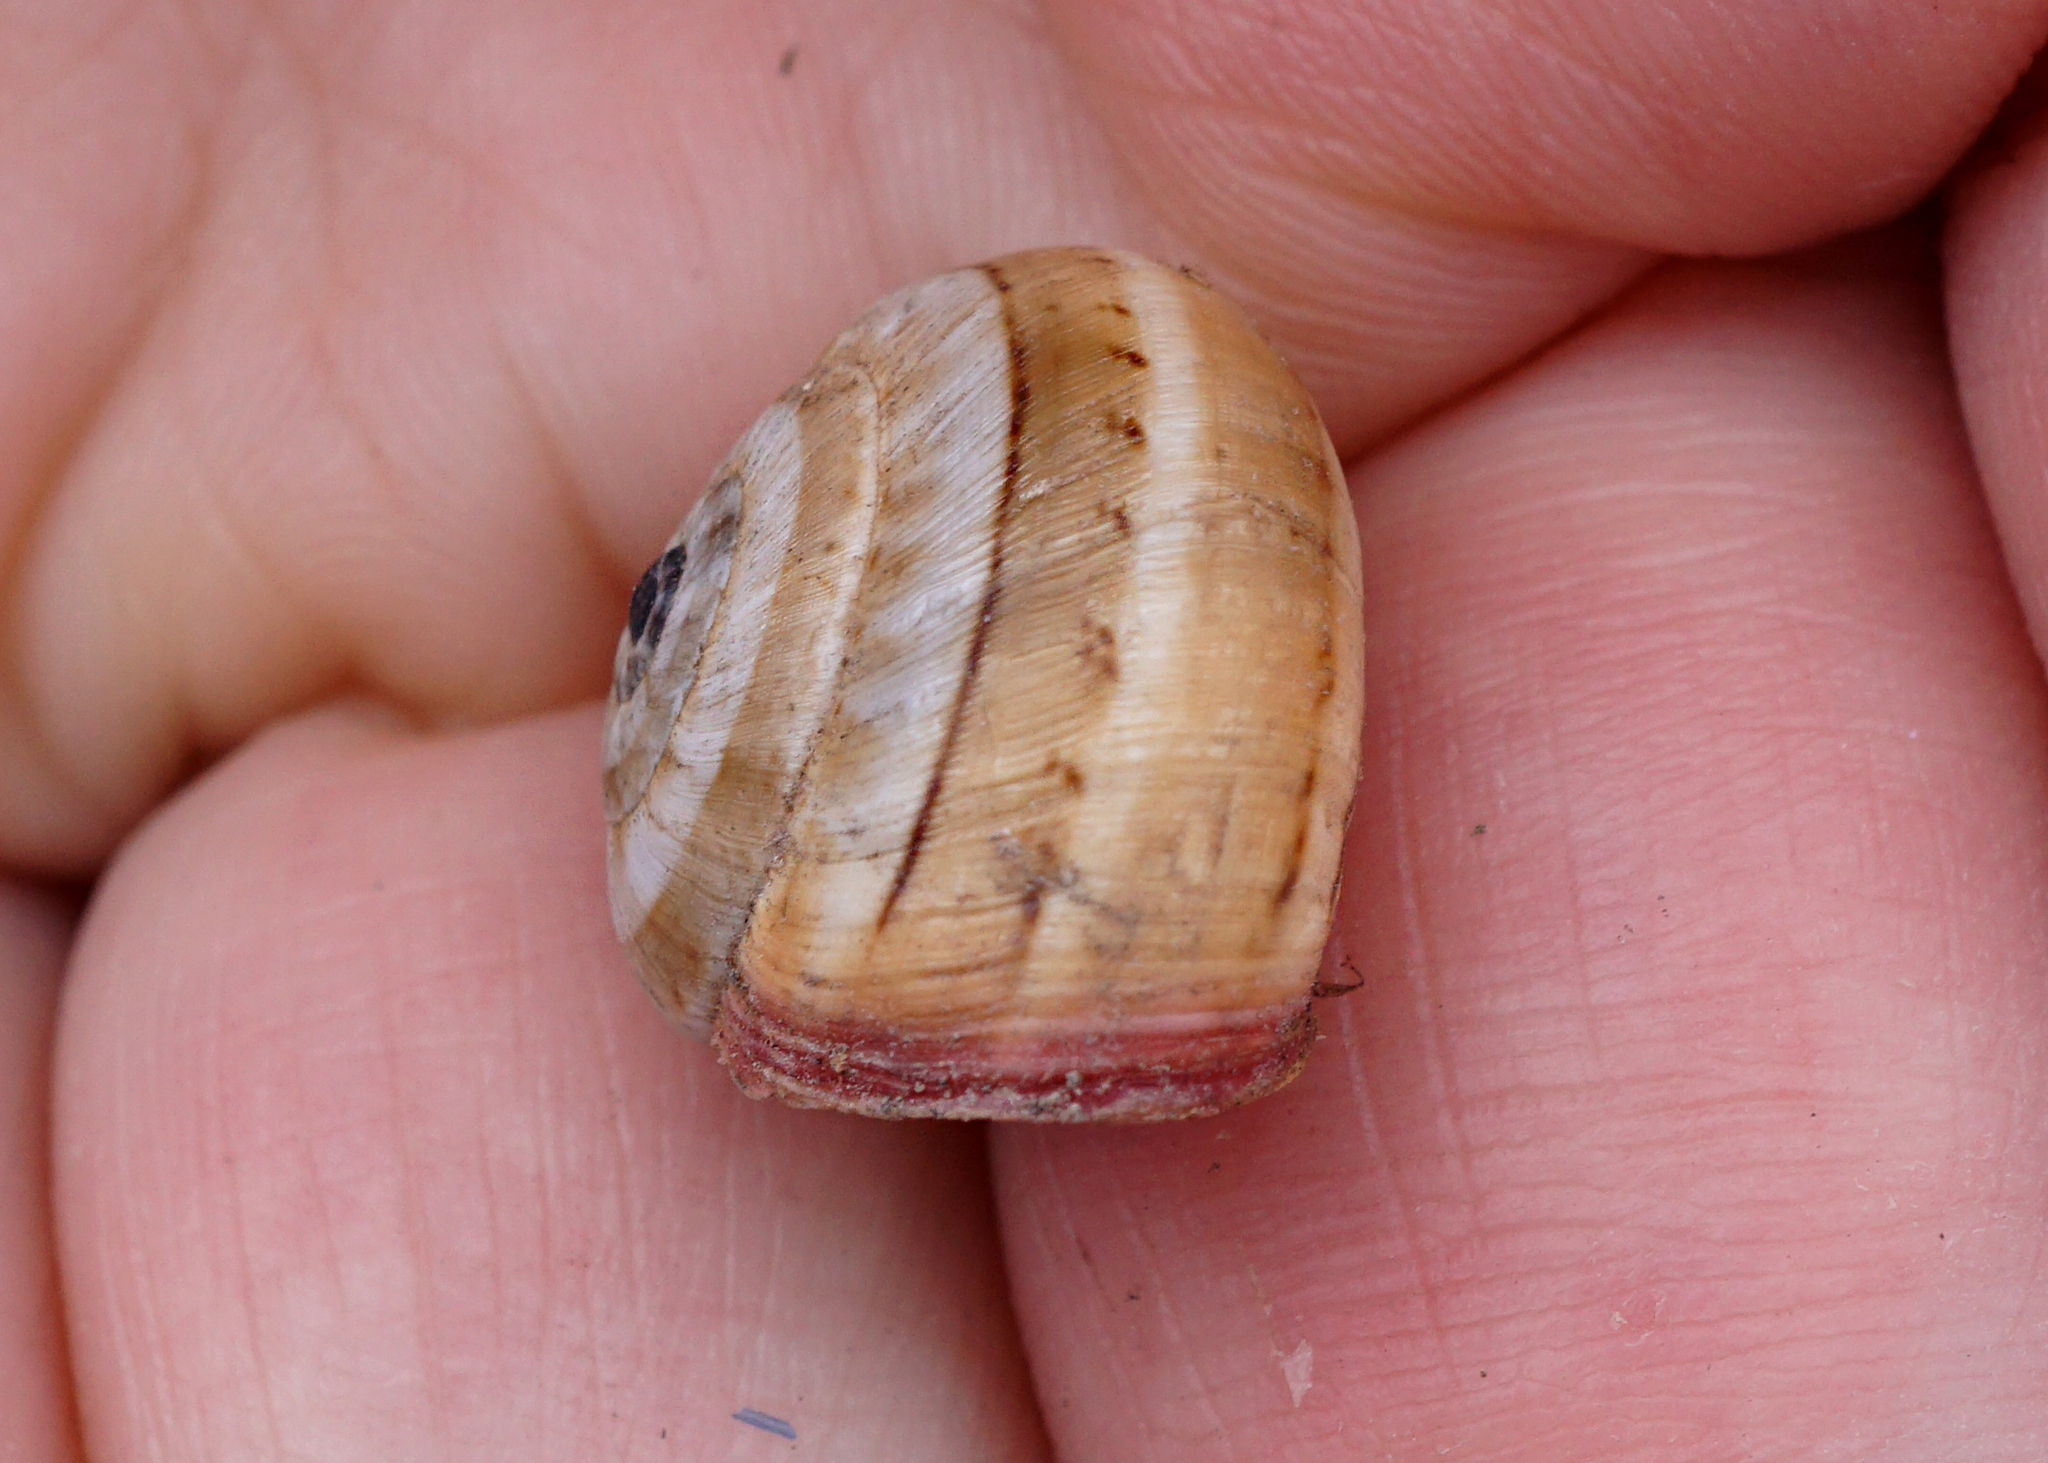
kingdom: Animalia
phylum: Mollusca
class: Gastropoda
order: Stylommatophora
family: Helicidae
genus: Theba
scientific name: Theba pisana
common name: White snail
